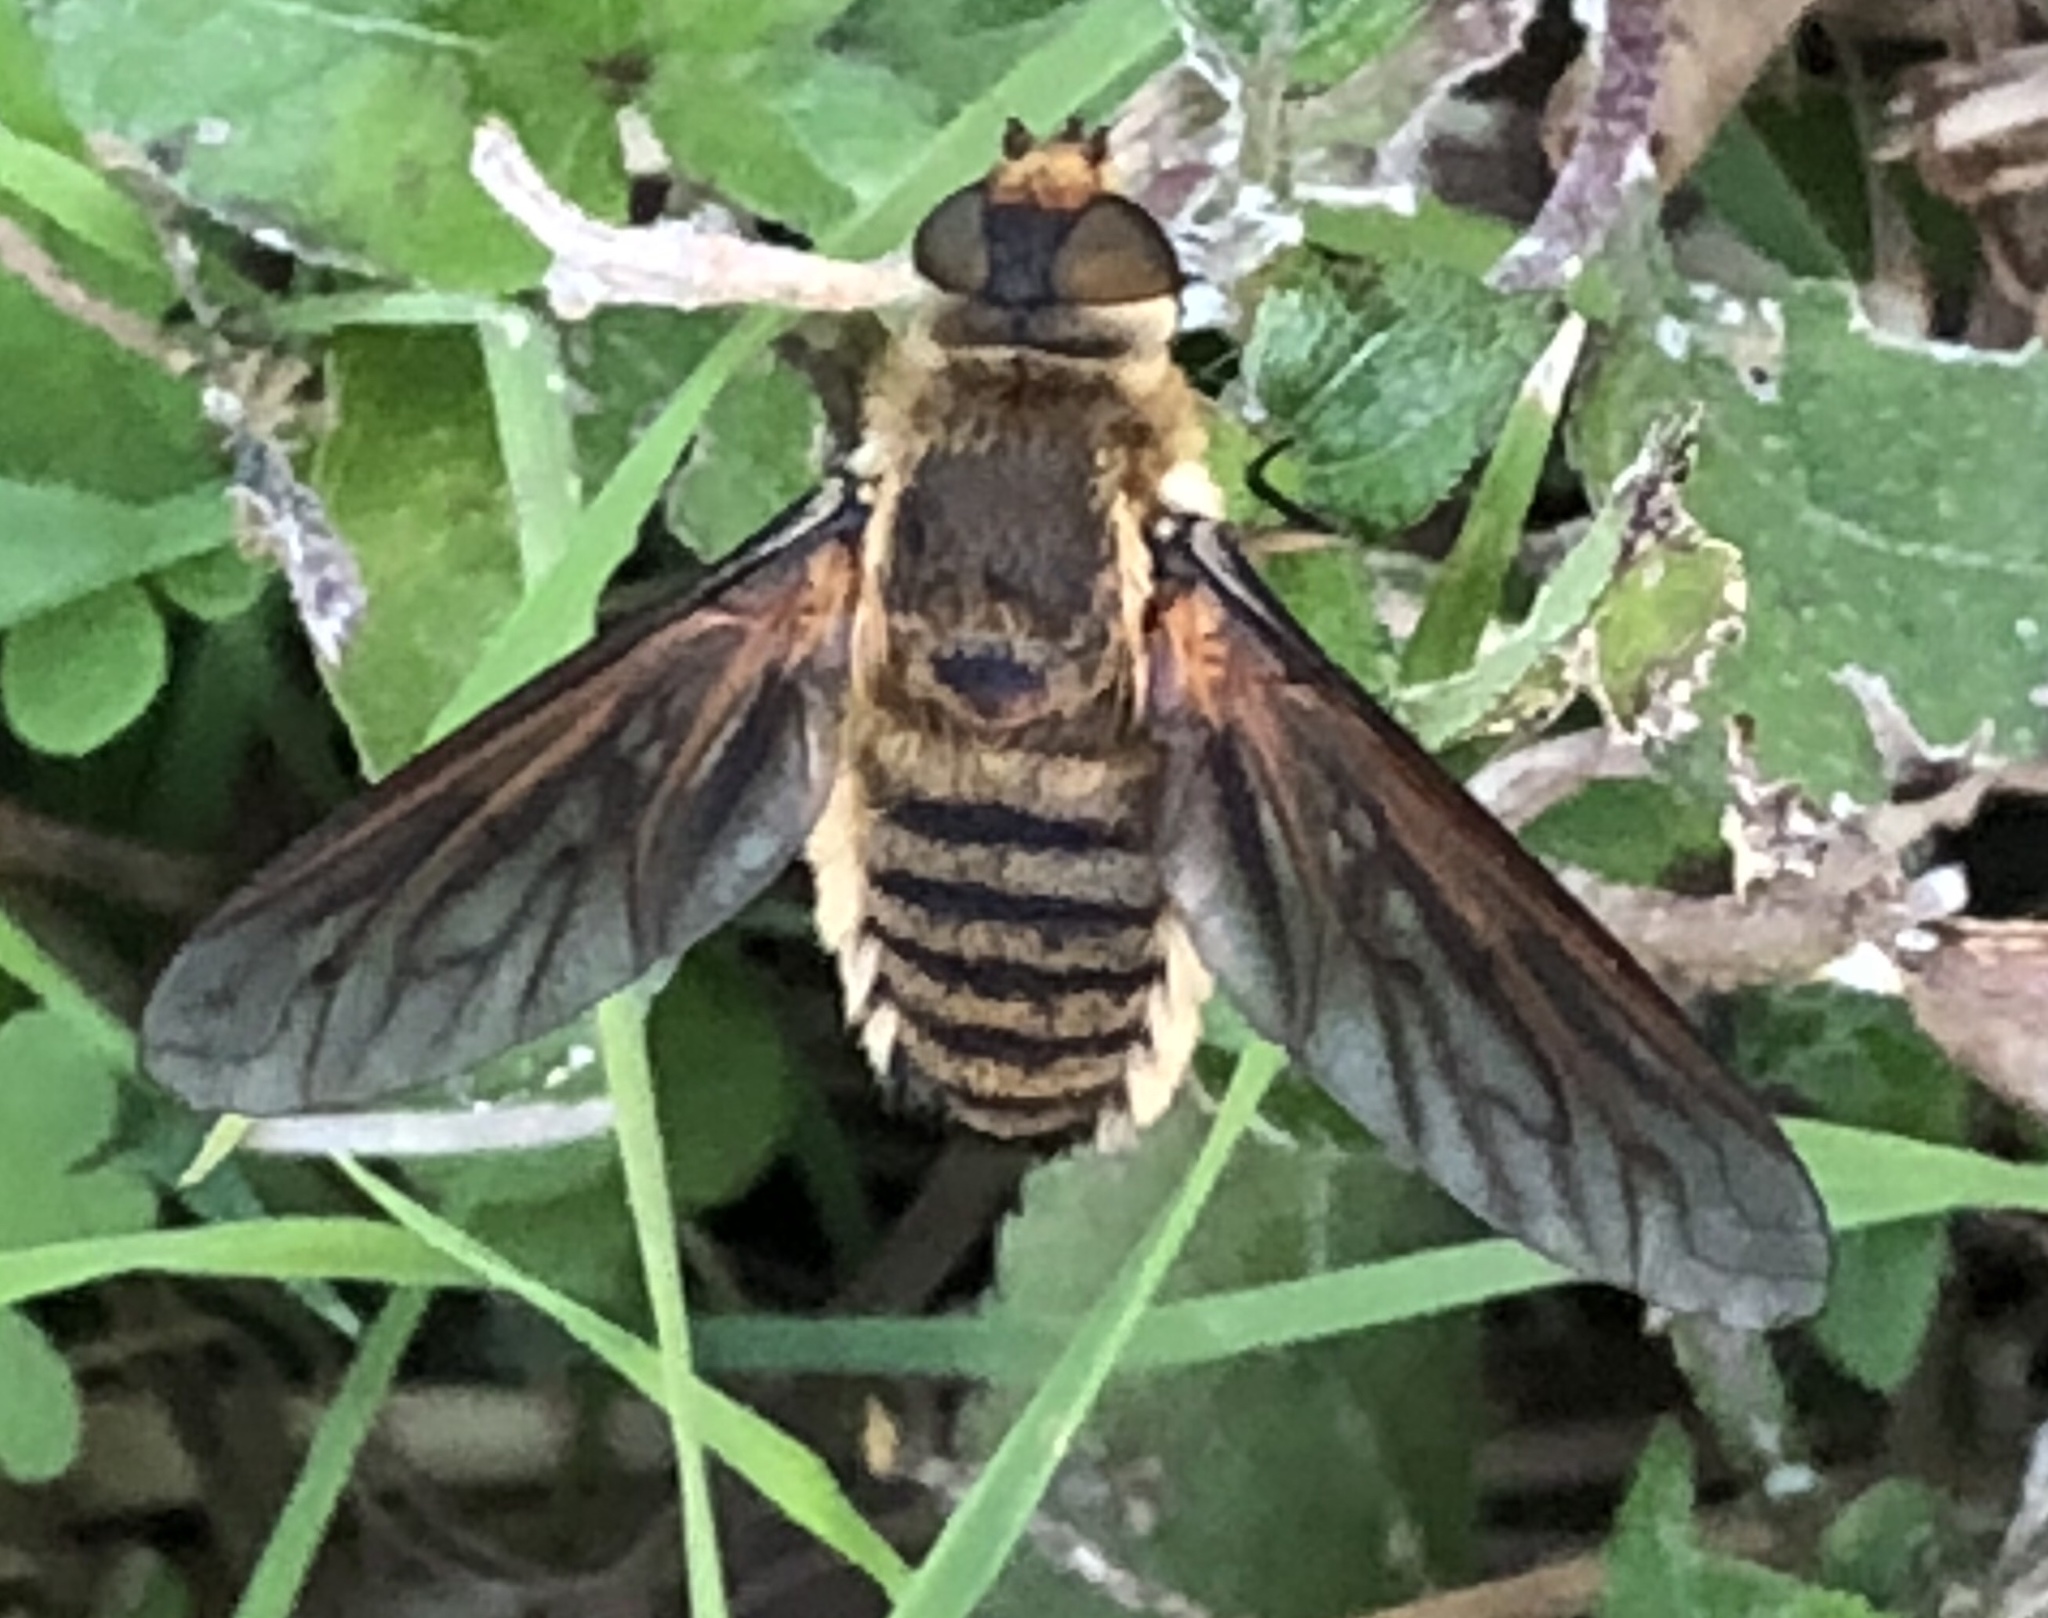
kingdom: Animalia
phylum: Arthropoda
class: Insecta
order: Diptera
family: Bombyliidae
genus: Poecilanthrax
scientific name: Poecilanthrax lucifer
